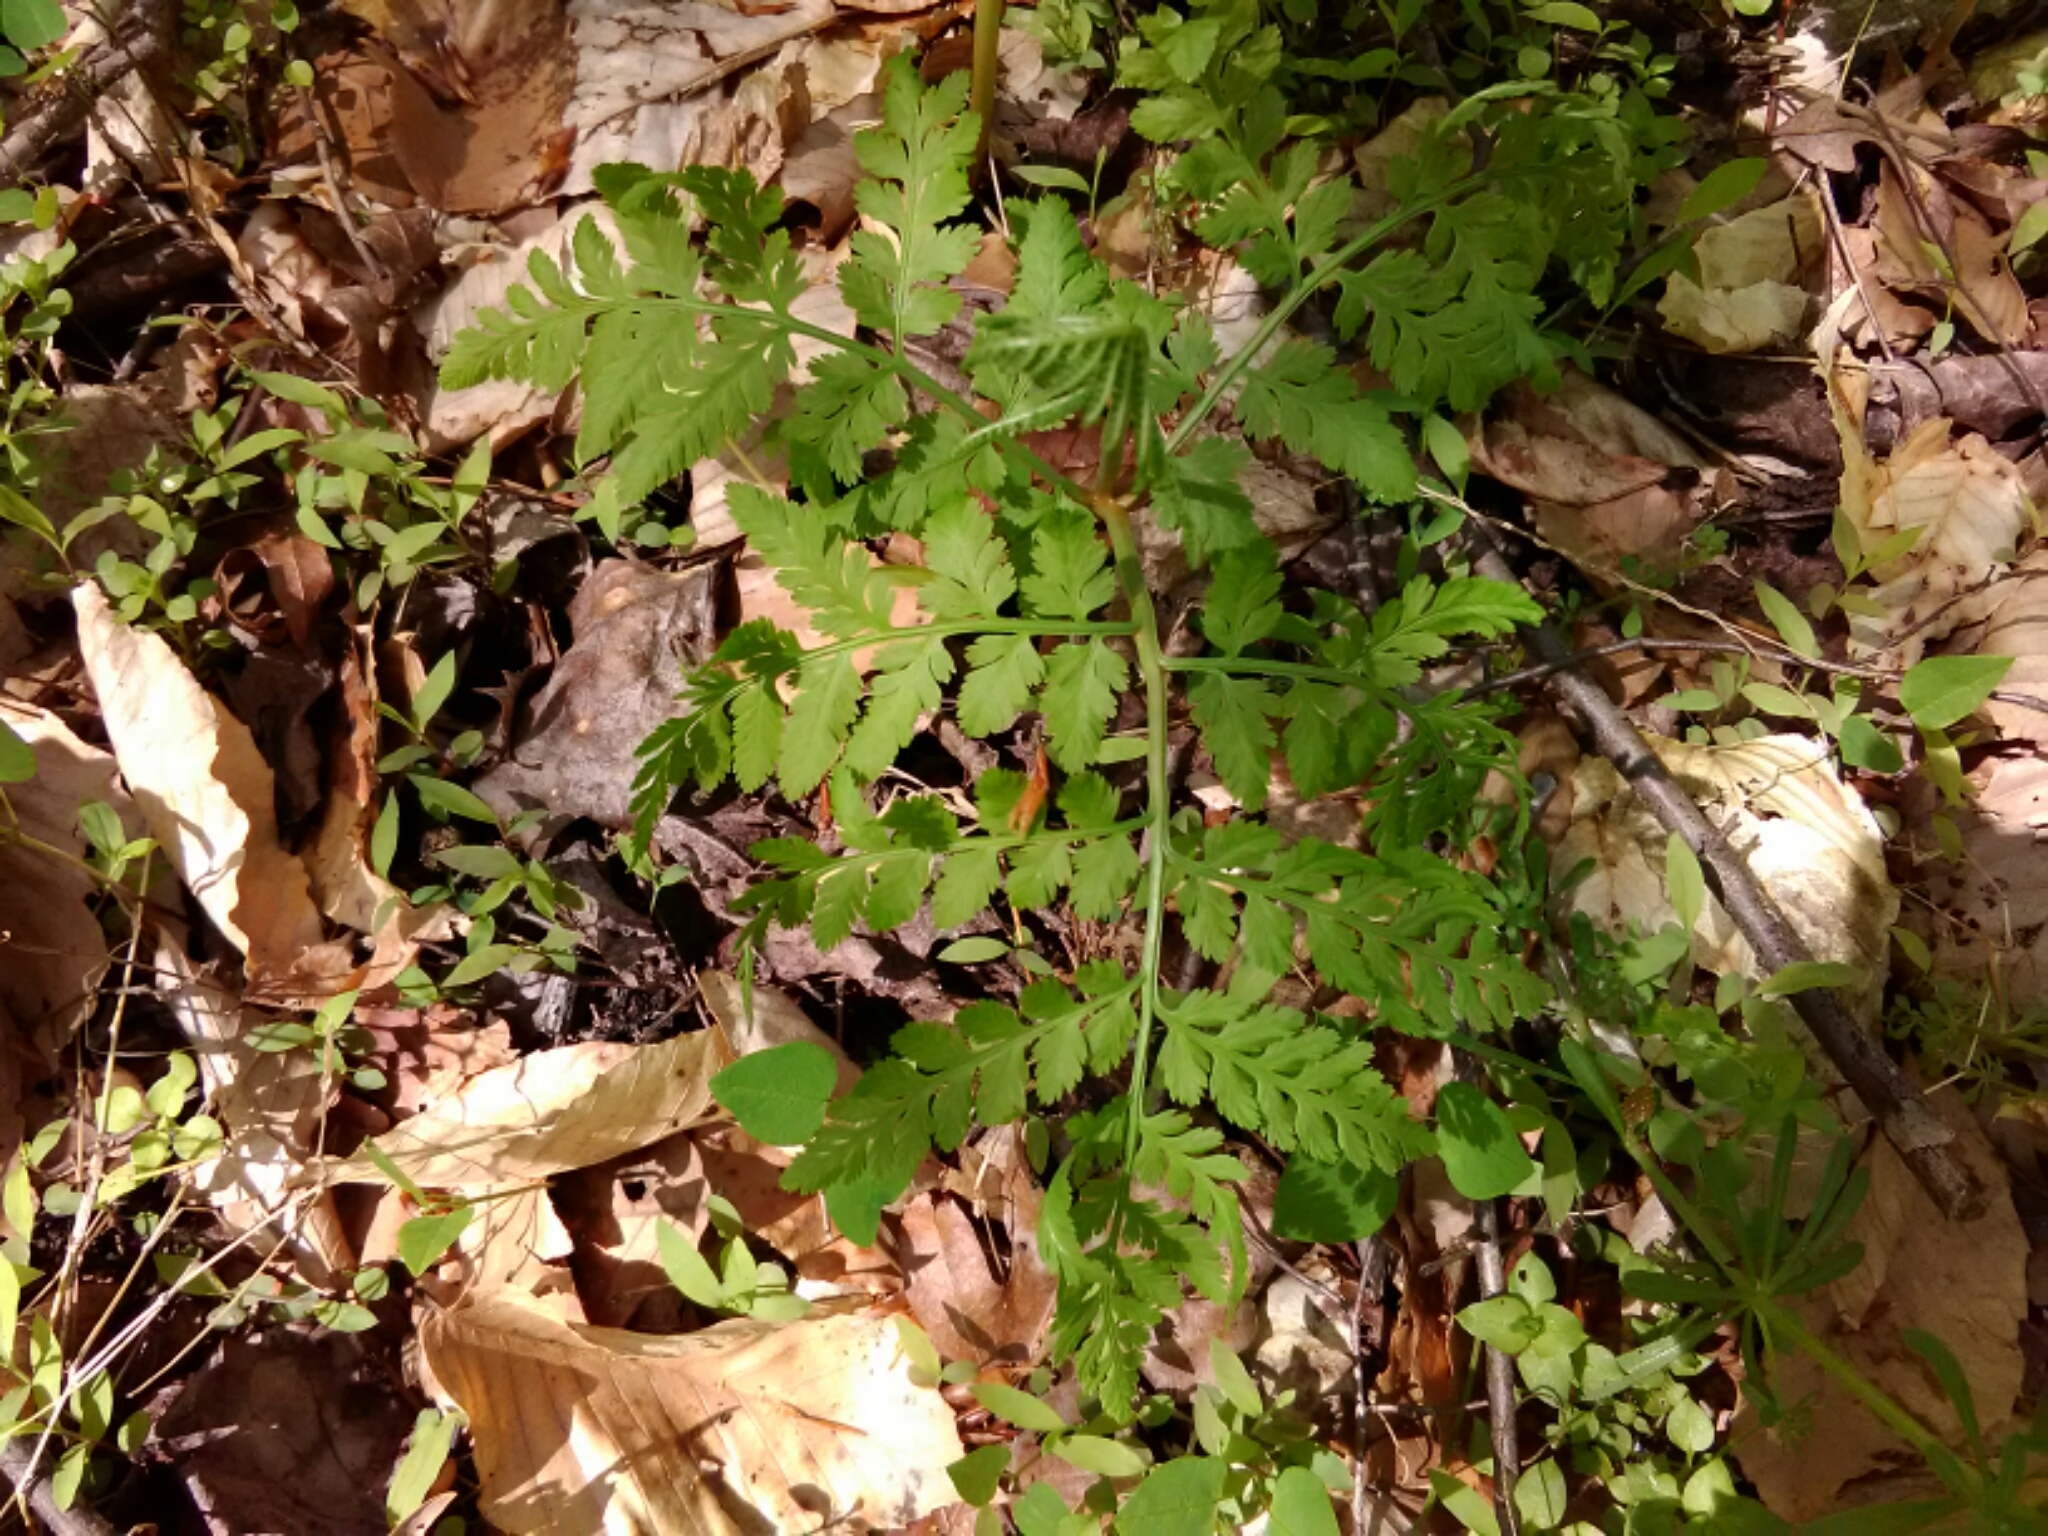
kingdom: Plantae
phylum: Tracheophyta
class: Polypodiopsida
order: Ophioglossales
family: Ophioglossaceae
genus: Botrypus
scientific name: Botrypus virginianus
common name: Common grapefern
